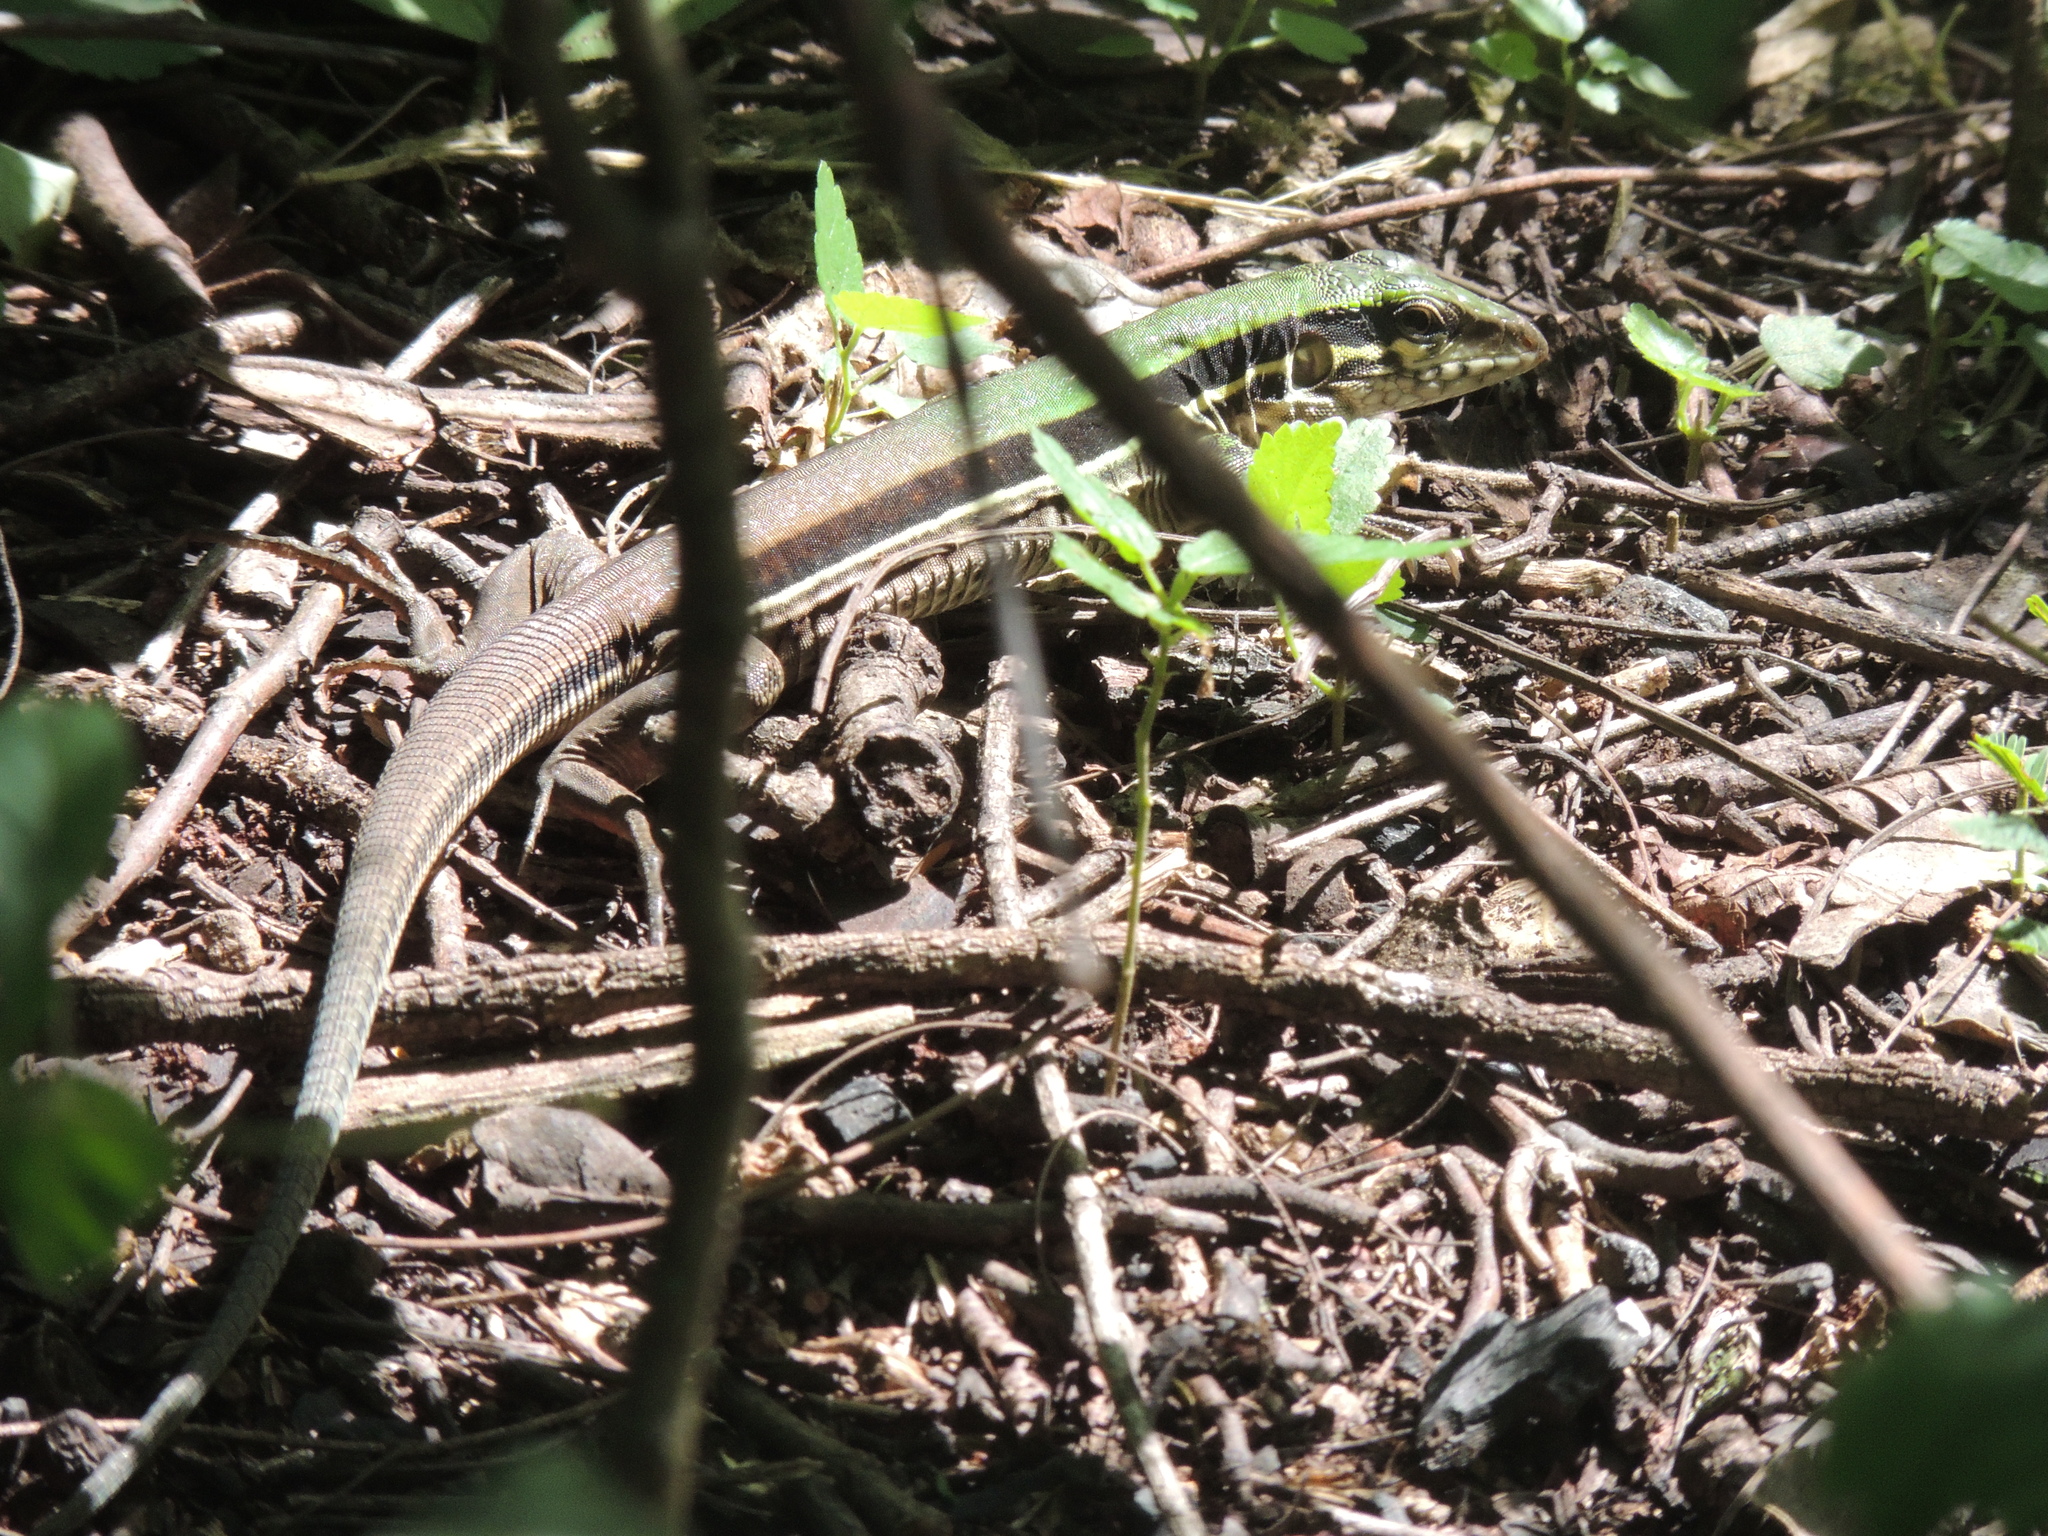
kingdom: Animalia
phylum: Chordata
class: Squamata
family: Teiidae
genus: Ameiva
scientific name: Ameiva ameiva
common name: Giant ameiva
